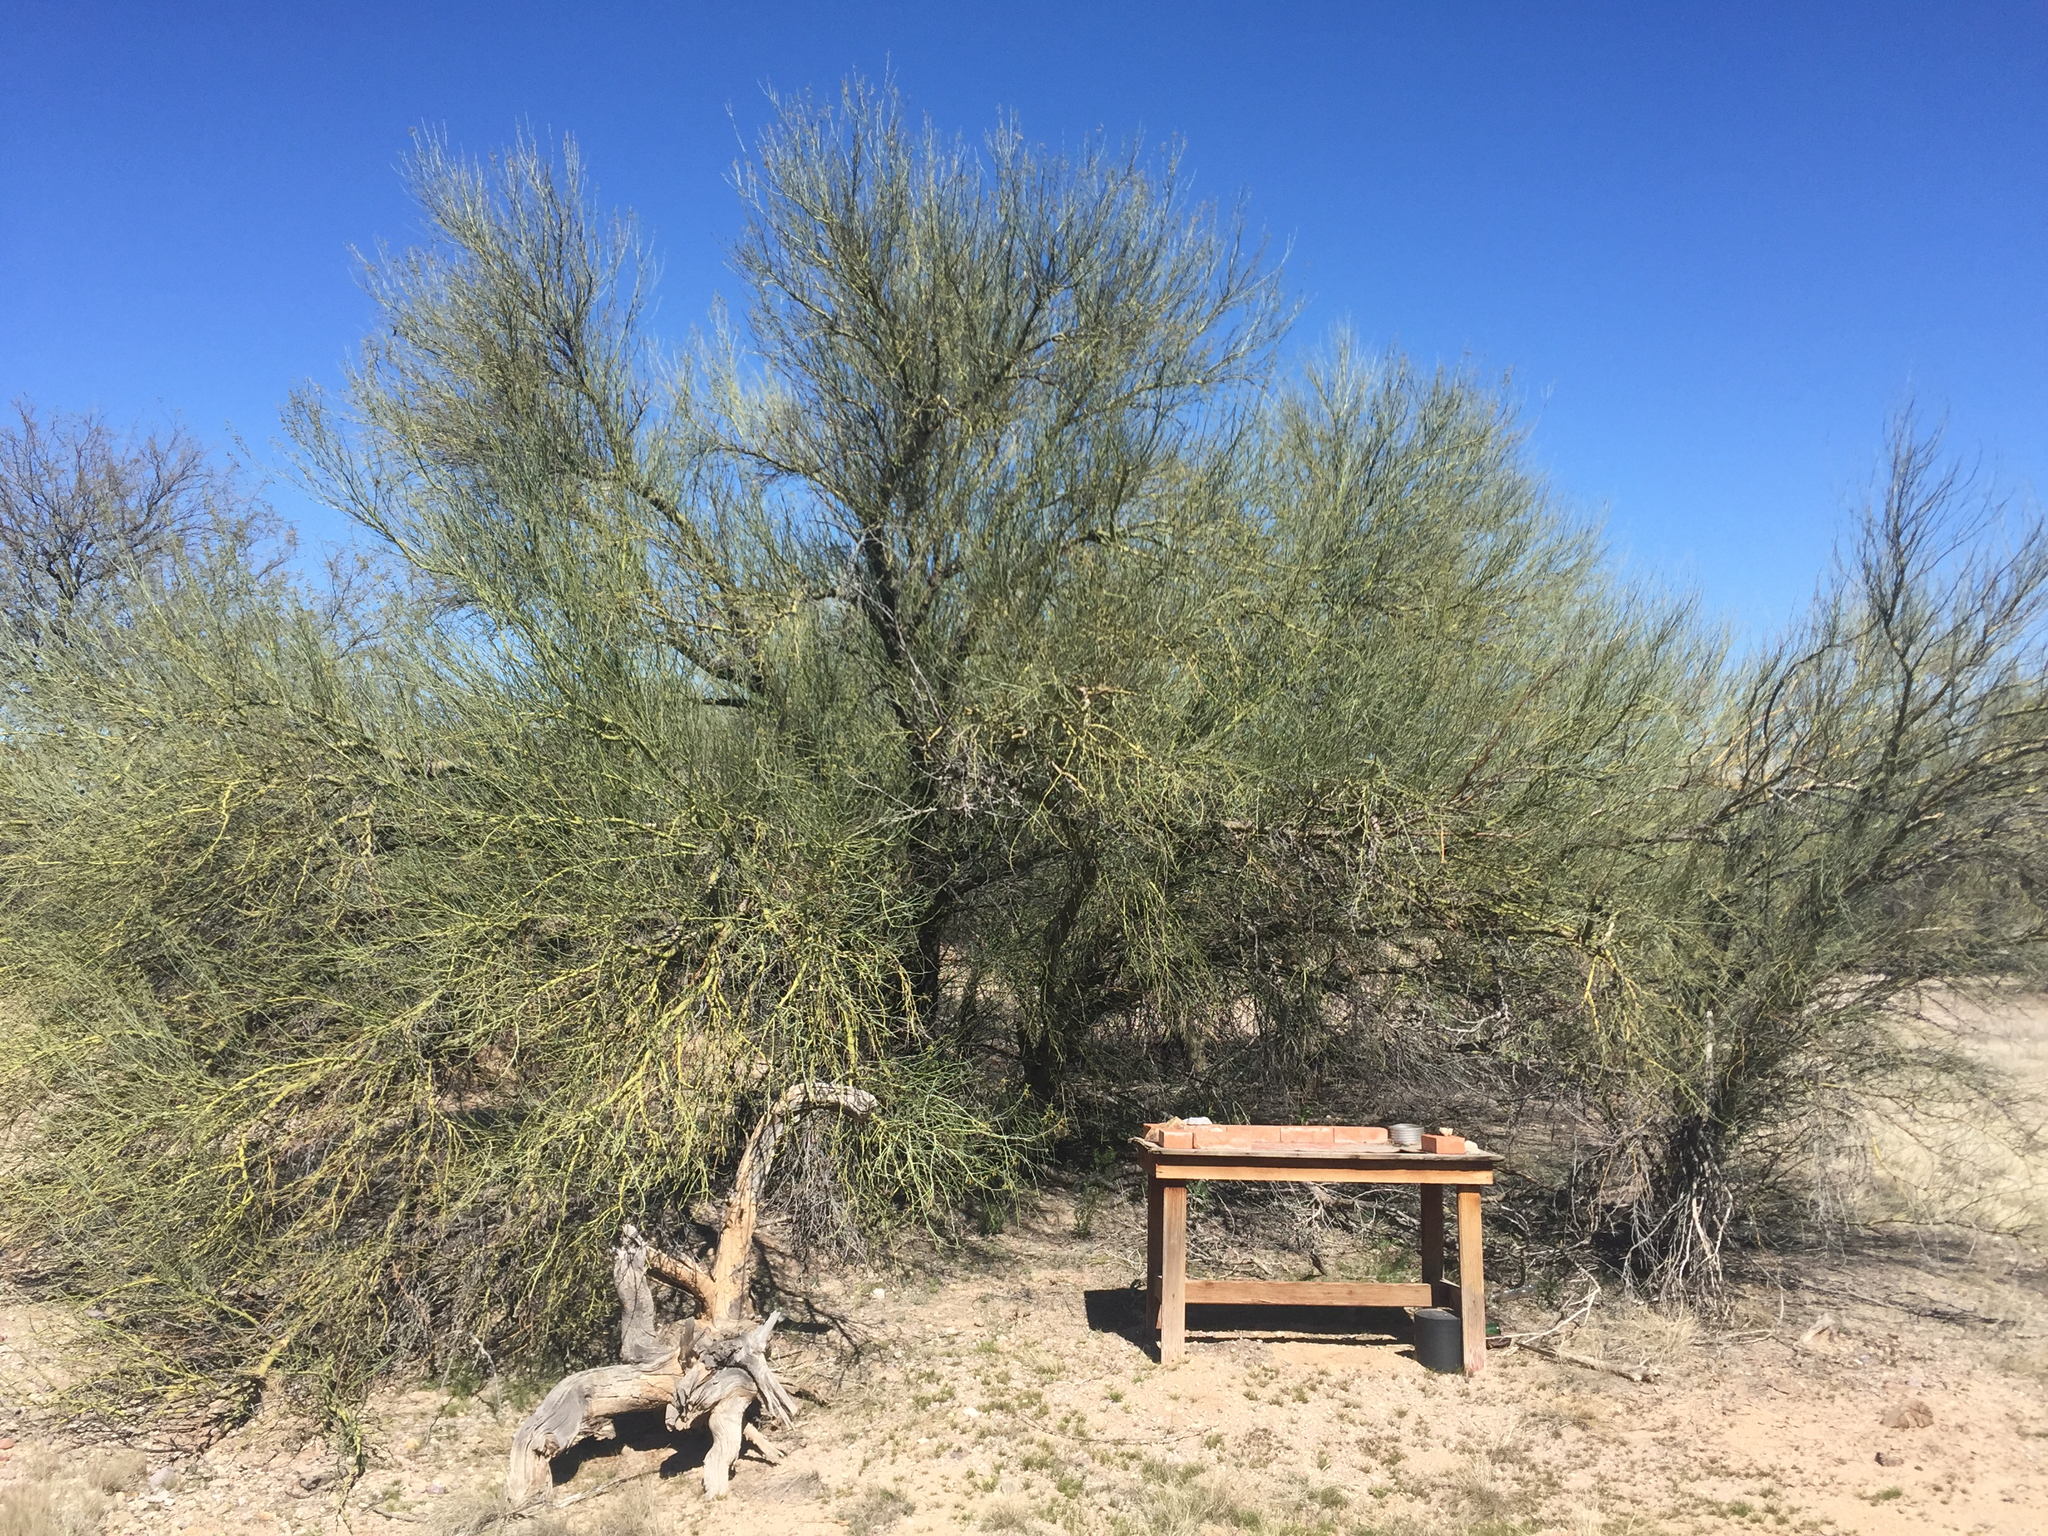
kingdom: Plantae
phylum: Tracheophyta
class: Magnoliopsida
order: Fabales
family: Fabaceae
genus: Parkinsonia
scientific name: Parkinsonia florida
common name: Blue paloverde
